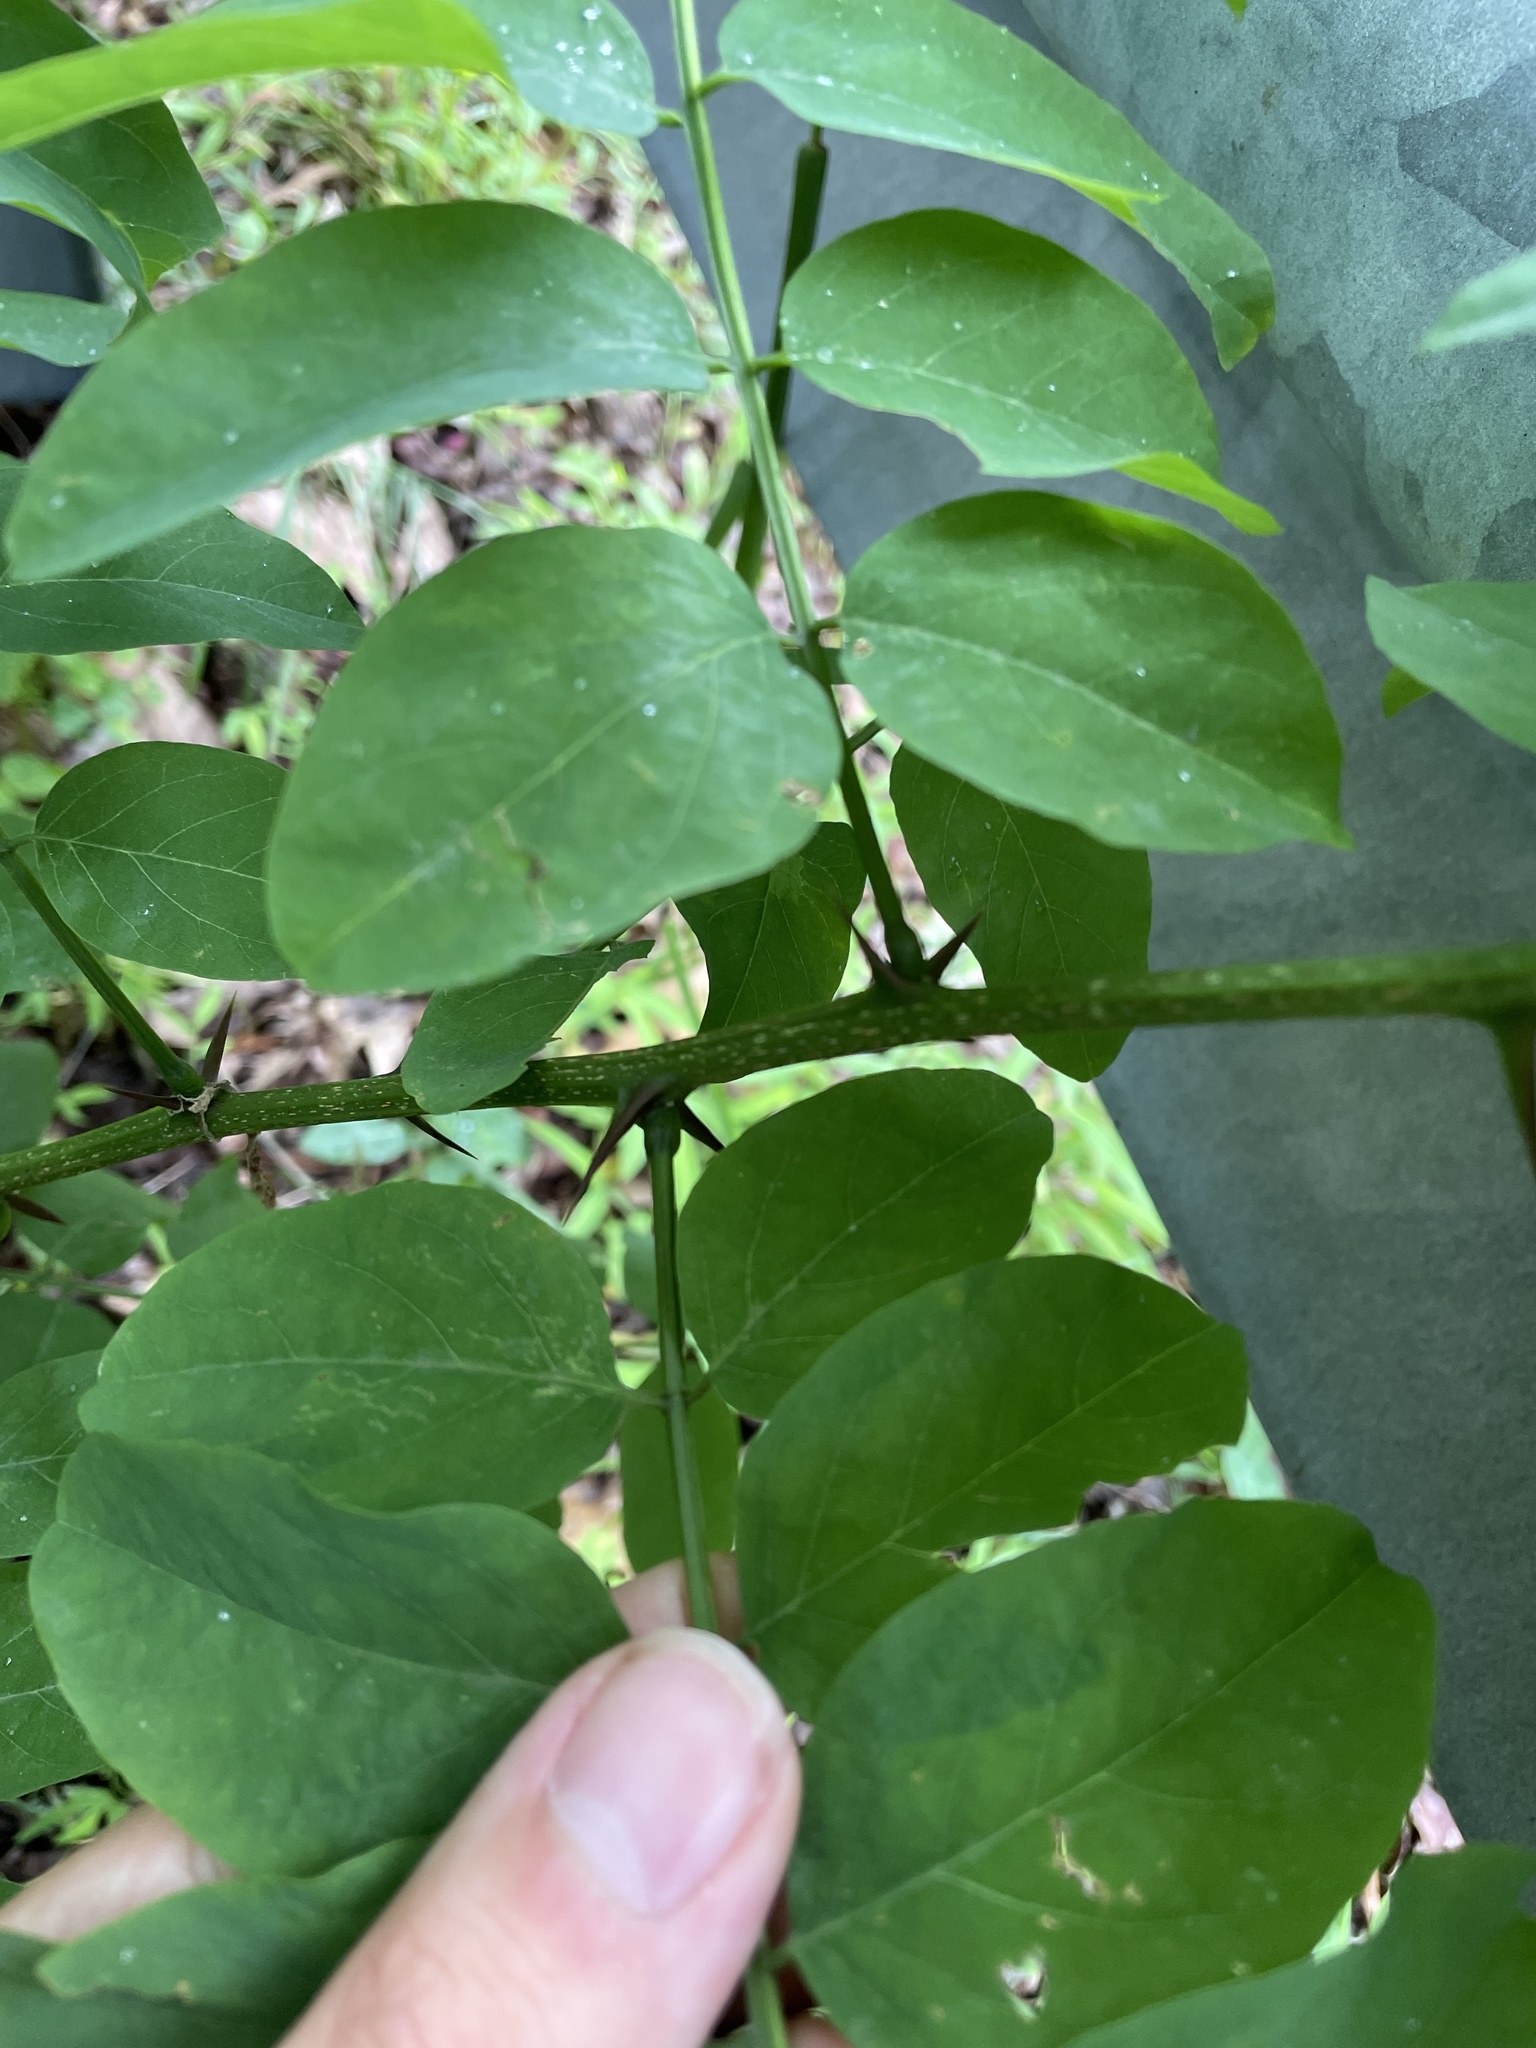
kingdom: Plantae
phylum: Tracheophyta
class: Magnoliopsida
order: Fabales
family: Fabaceae
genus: Robinia
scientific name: Robinia pseudoacacia
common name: Black locust
